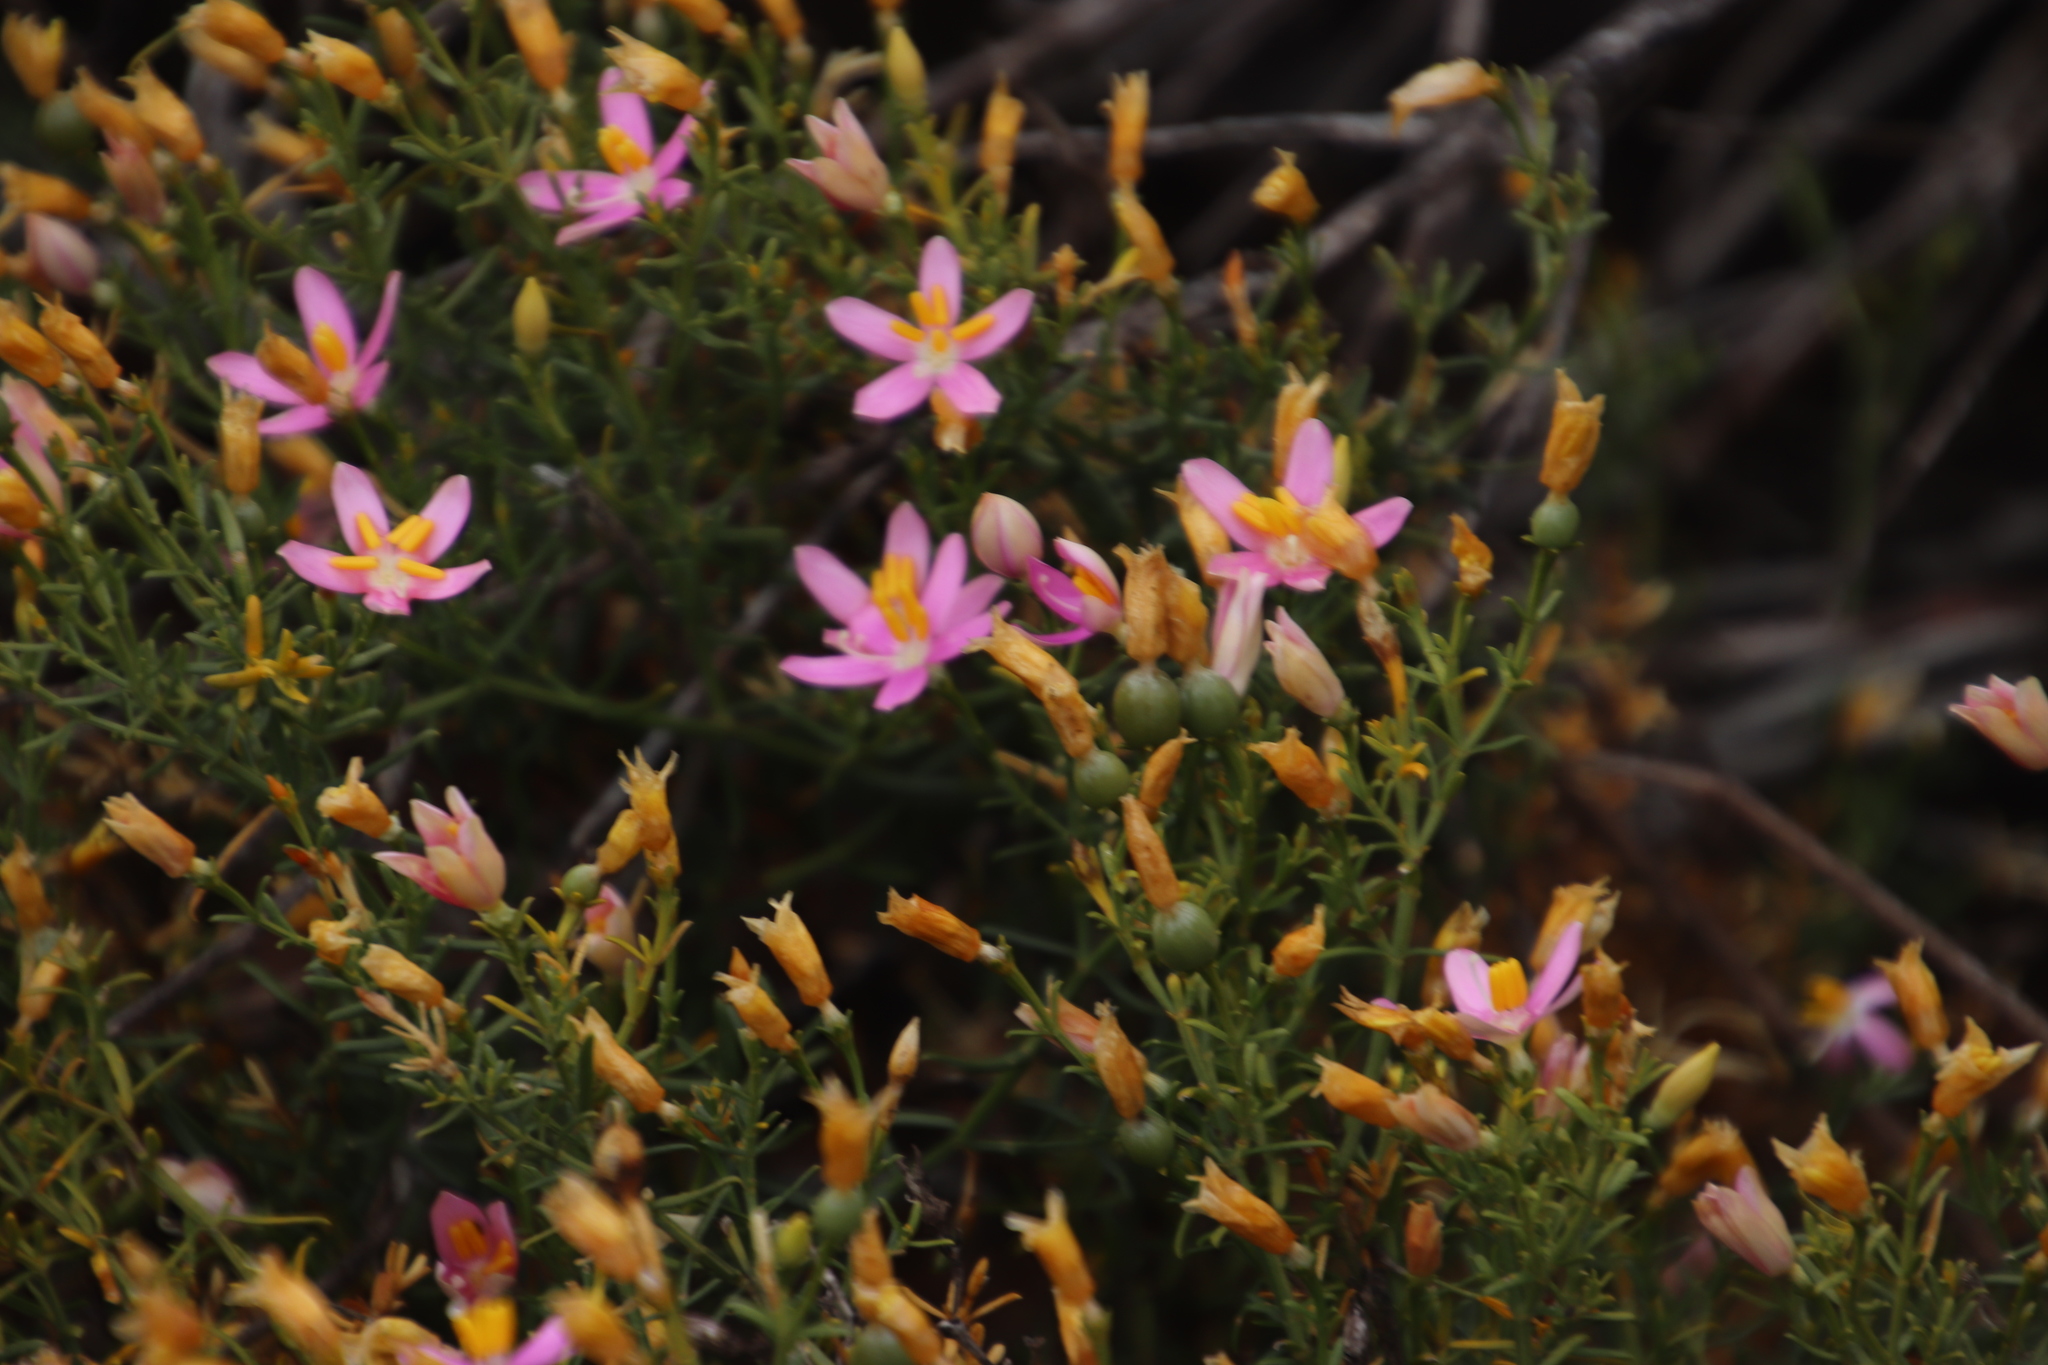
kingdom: Plantae
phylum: Tracheophyta
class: Magnoliopsida
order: Gentianales
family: Gentianaceae
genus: Chironia
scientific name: Chironia baccifera
